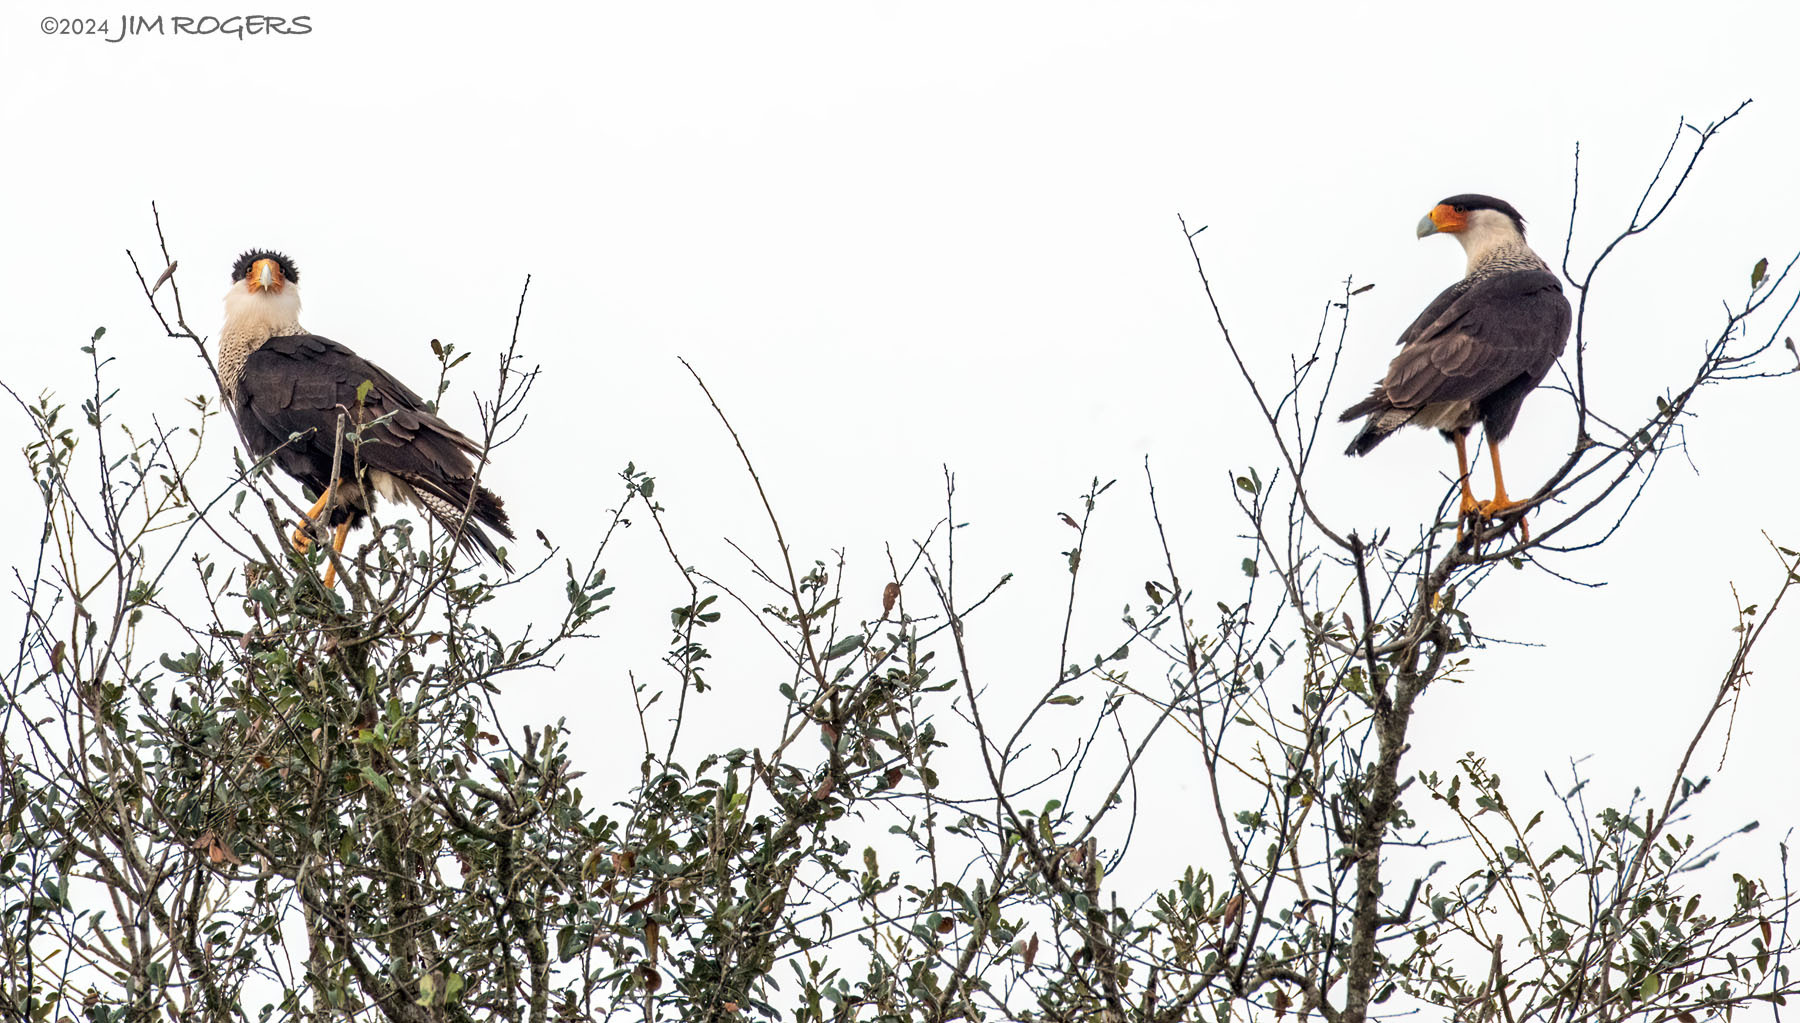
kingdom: Animalia
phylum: Chordata
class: Aves
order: Falconiformes
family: Falconidae
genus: Caracara
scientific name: Caracara plancus
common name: Southern caracara
